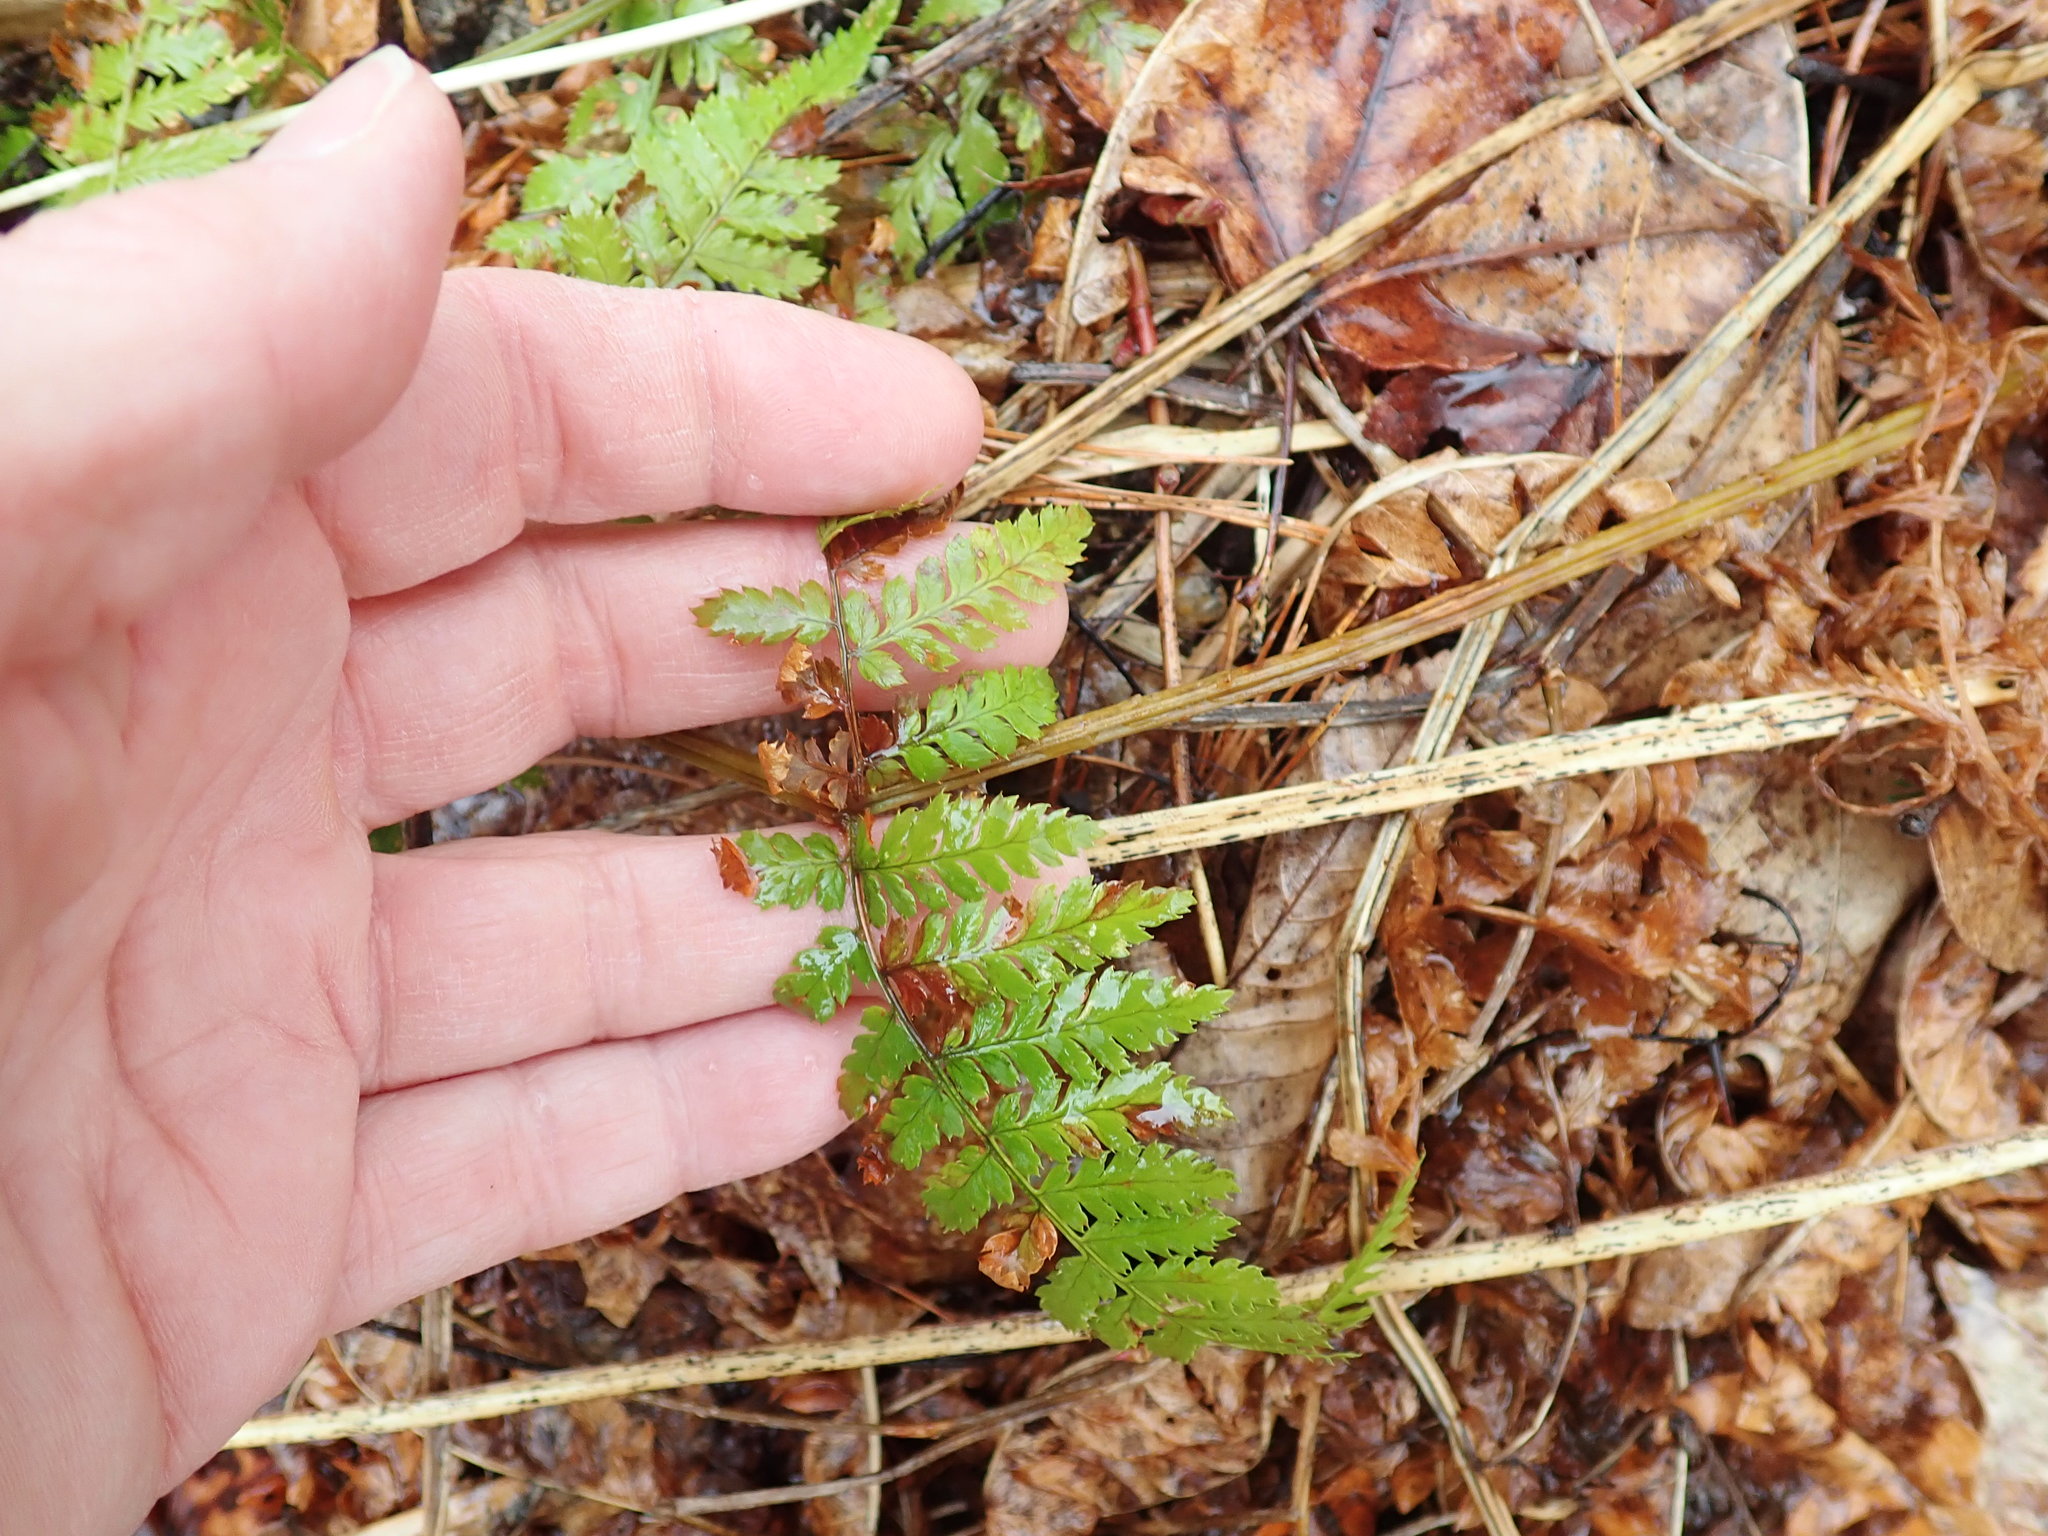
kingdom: Plantae
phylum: Tracheophyta
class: Polypodiopsida
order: Polypodiales
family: Dryopteridaceae
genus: Dryopteris
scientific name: Dryopteris intermedia
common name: Evergreen wood fern
